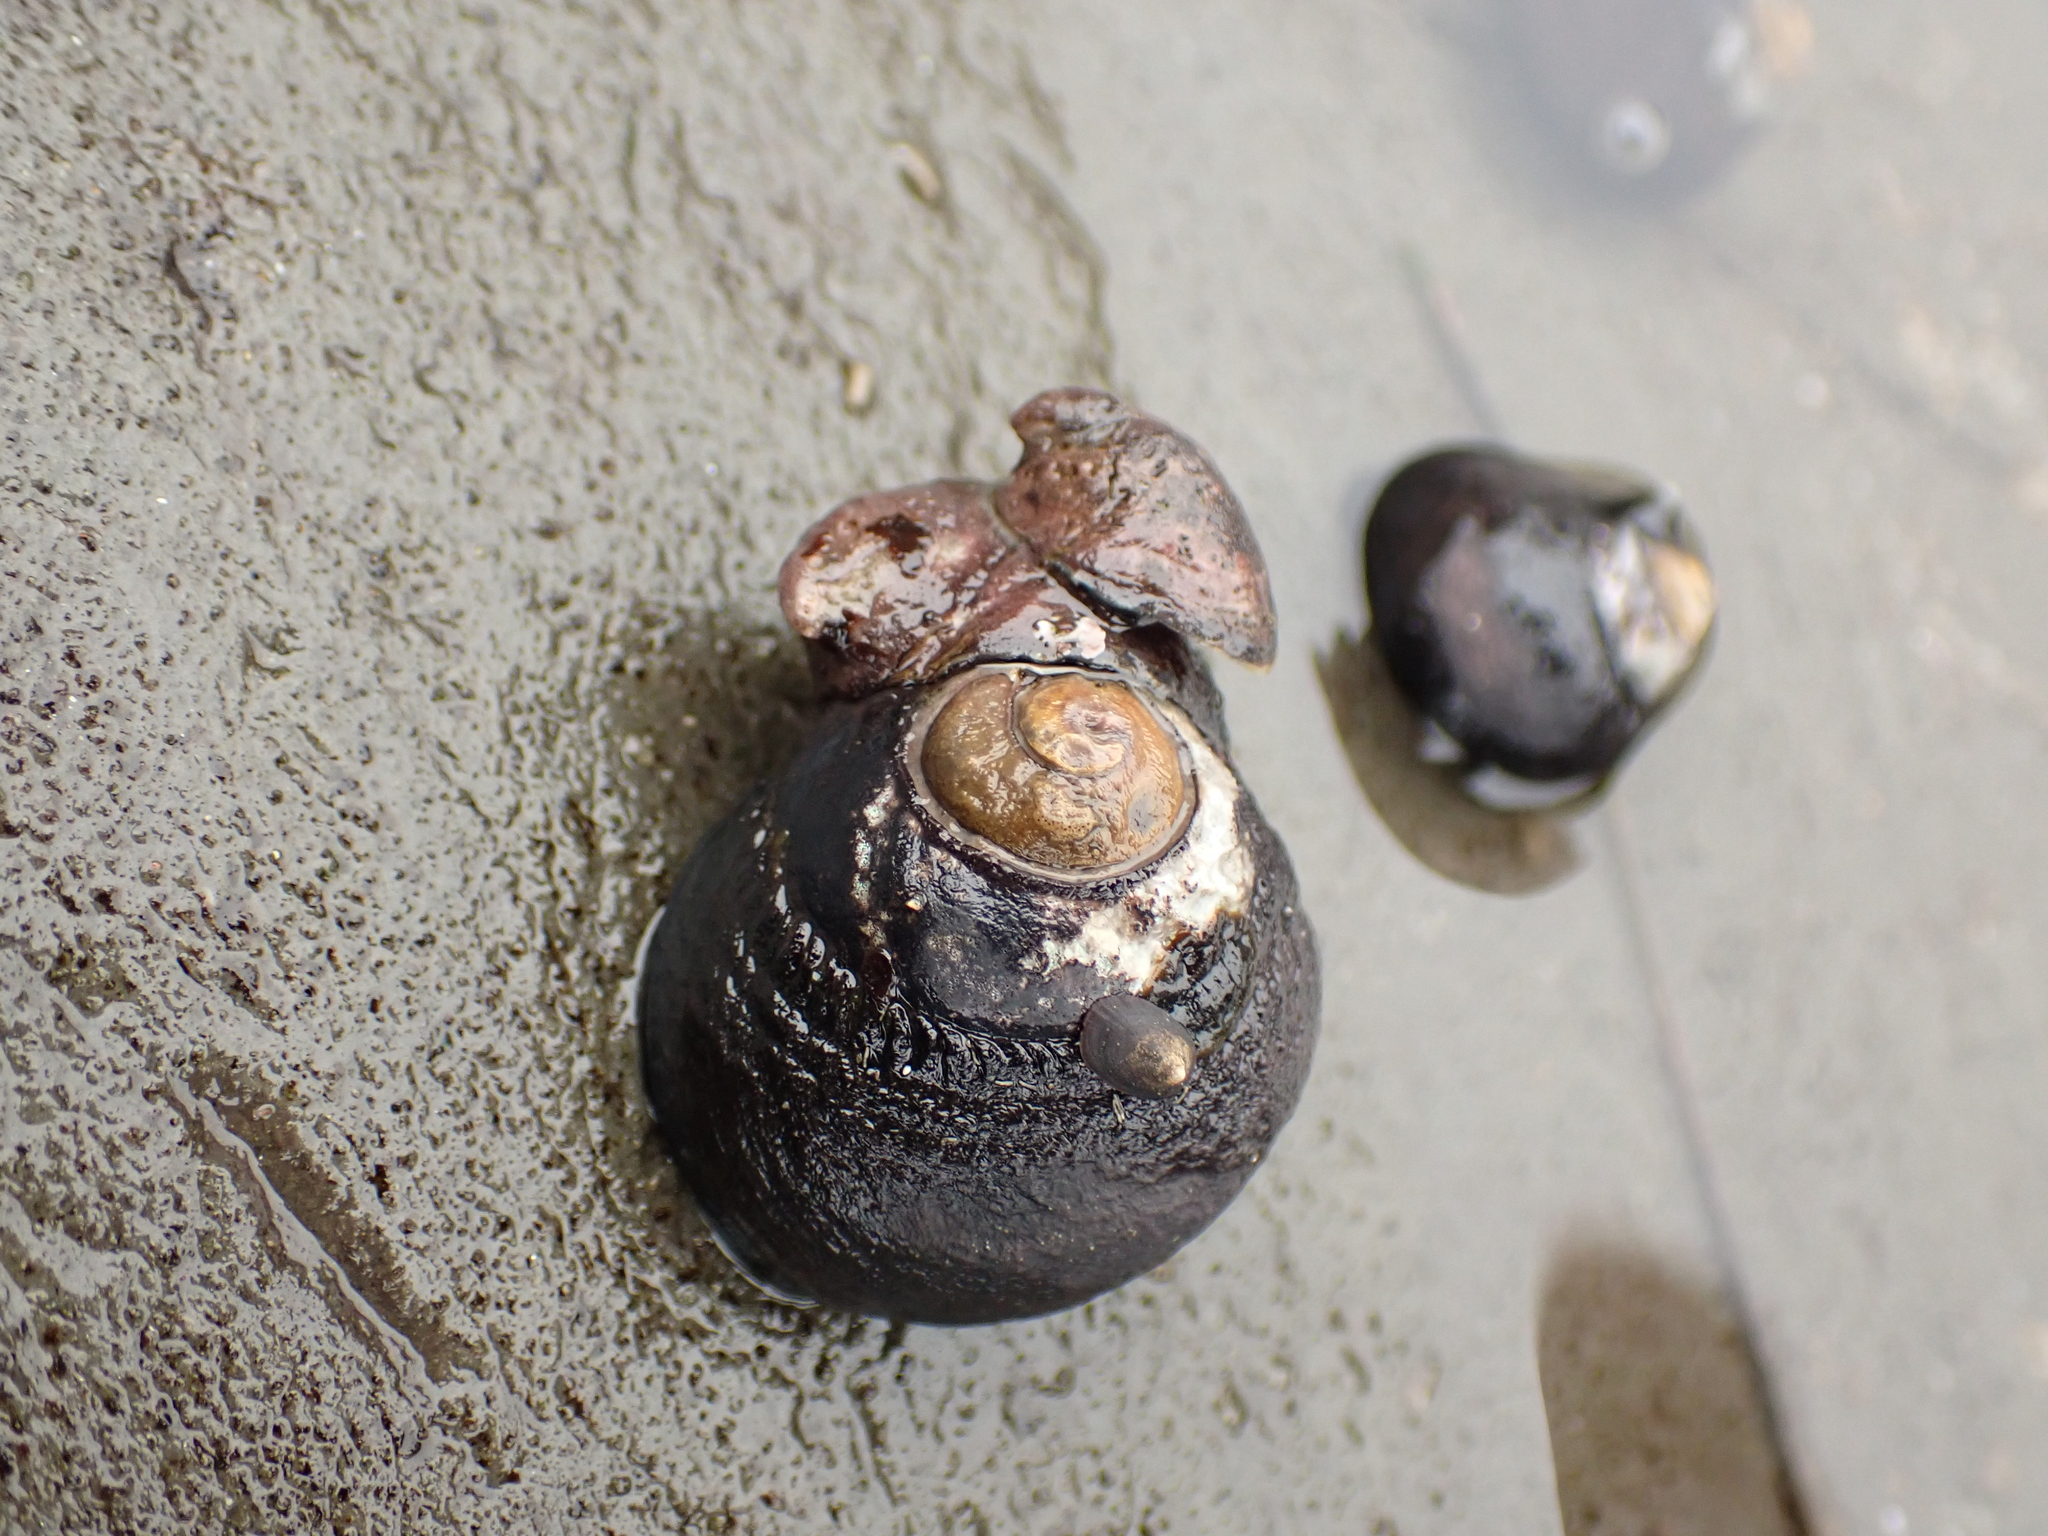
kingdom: Animalia
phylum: Mollusca
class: Gastropoda
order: Trochida
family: Tegulidae
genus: Tegula
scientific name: Tegula funebralis
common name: Black tegula
